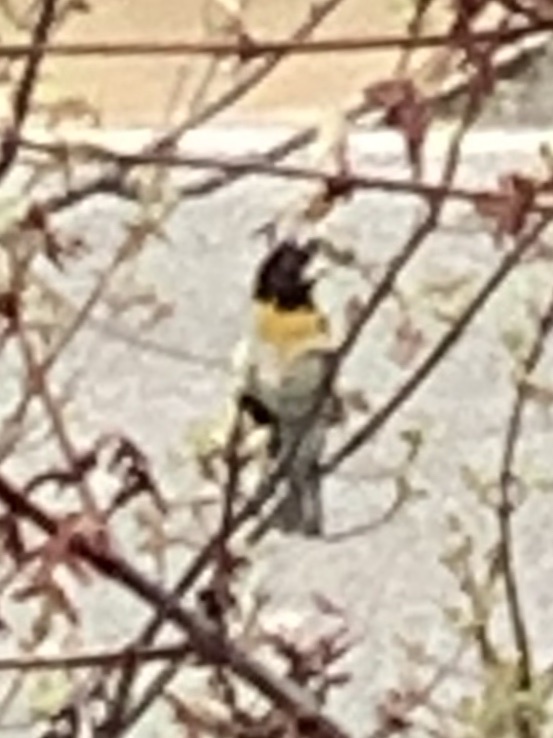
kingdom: Animalia
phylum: Chordata
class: Aves
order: Passeriformes
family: Cardinalidae
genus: Pheucticus
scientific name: Pheucticus ludovicianus
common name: Rose-breasted grosbeak
